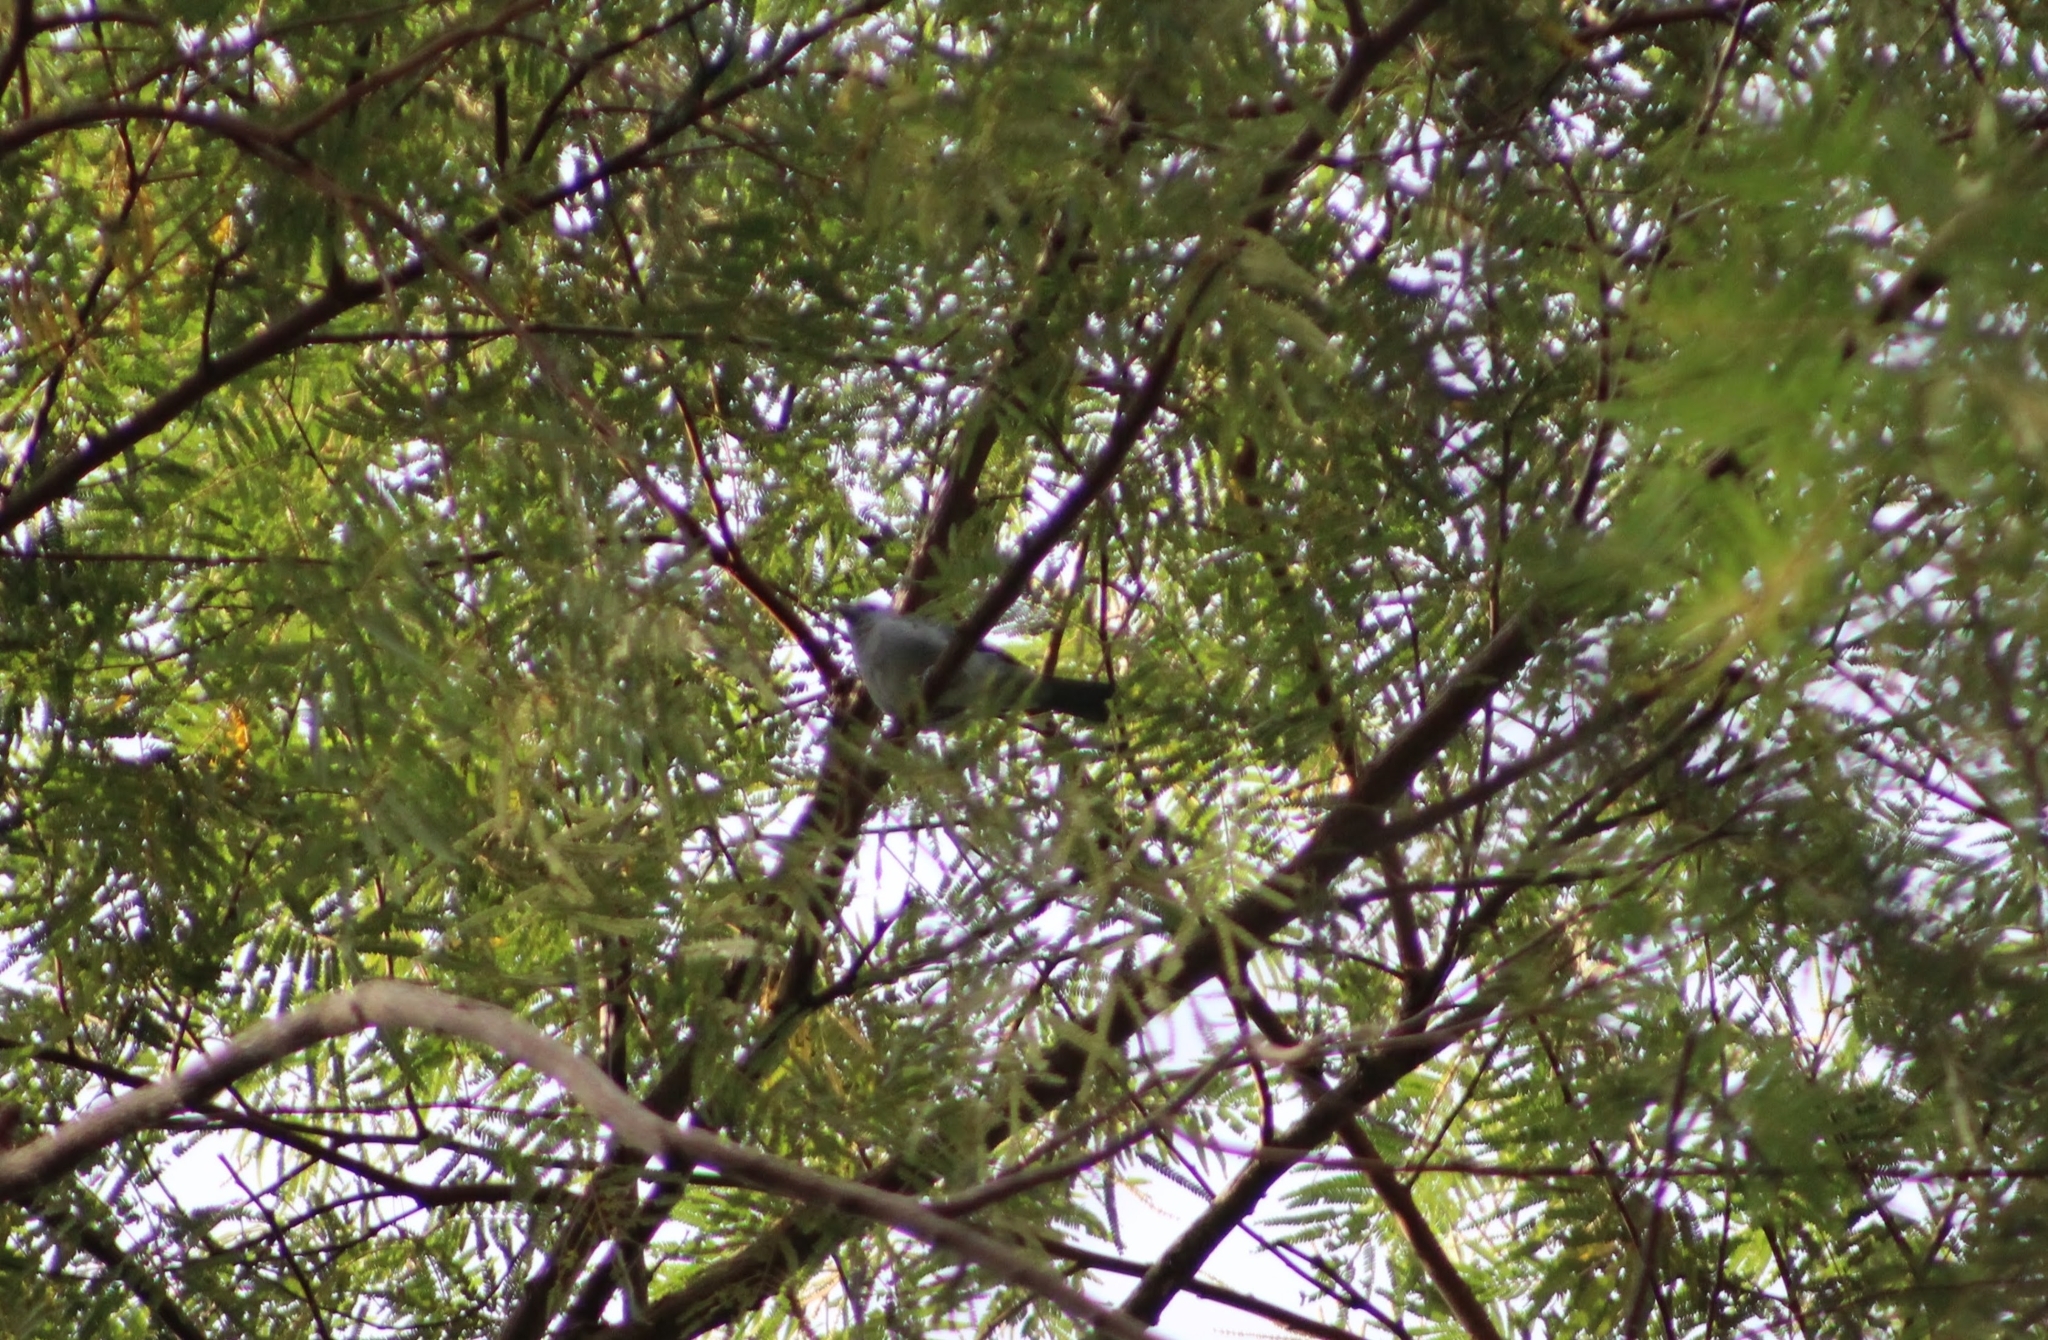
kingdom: Animalia
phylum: Chordata
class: Aves
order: Passeriformes
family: Thraupidae
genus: Thraupis
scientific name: Thraupis episcopus
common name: Blue-grey tanager
